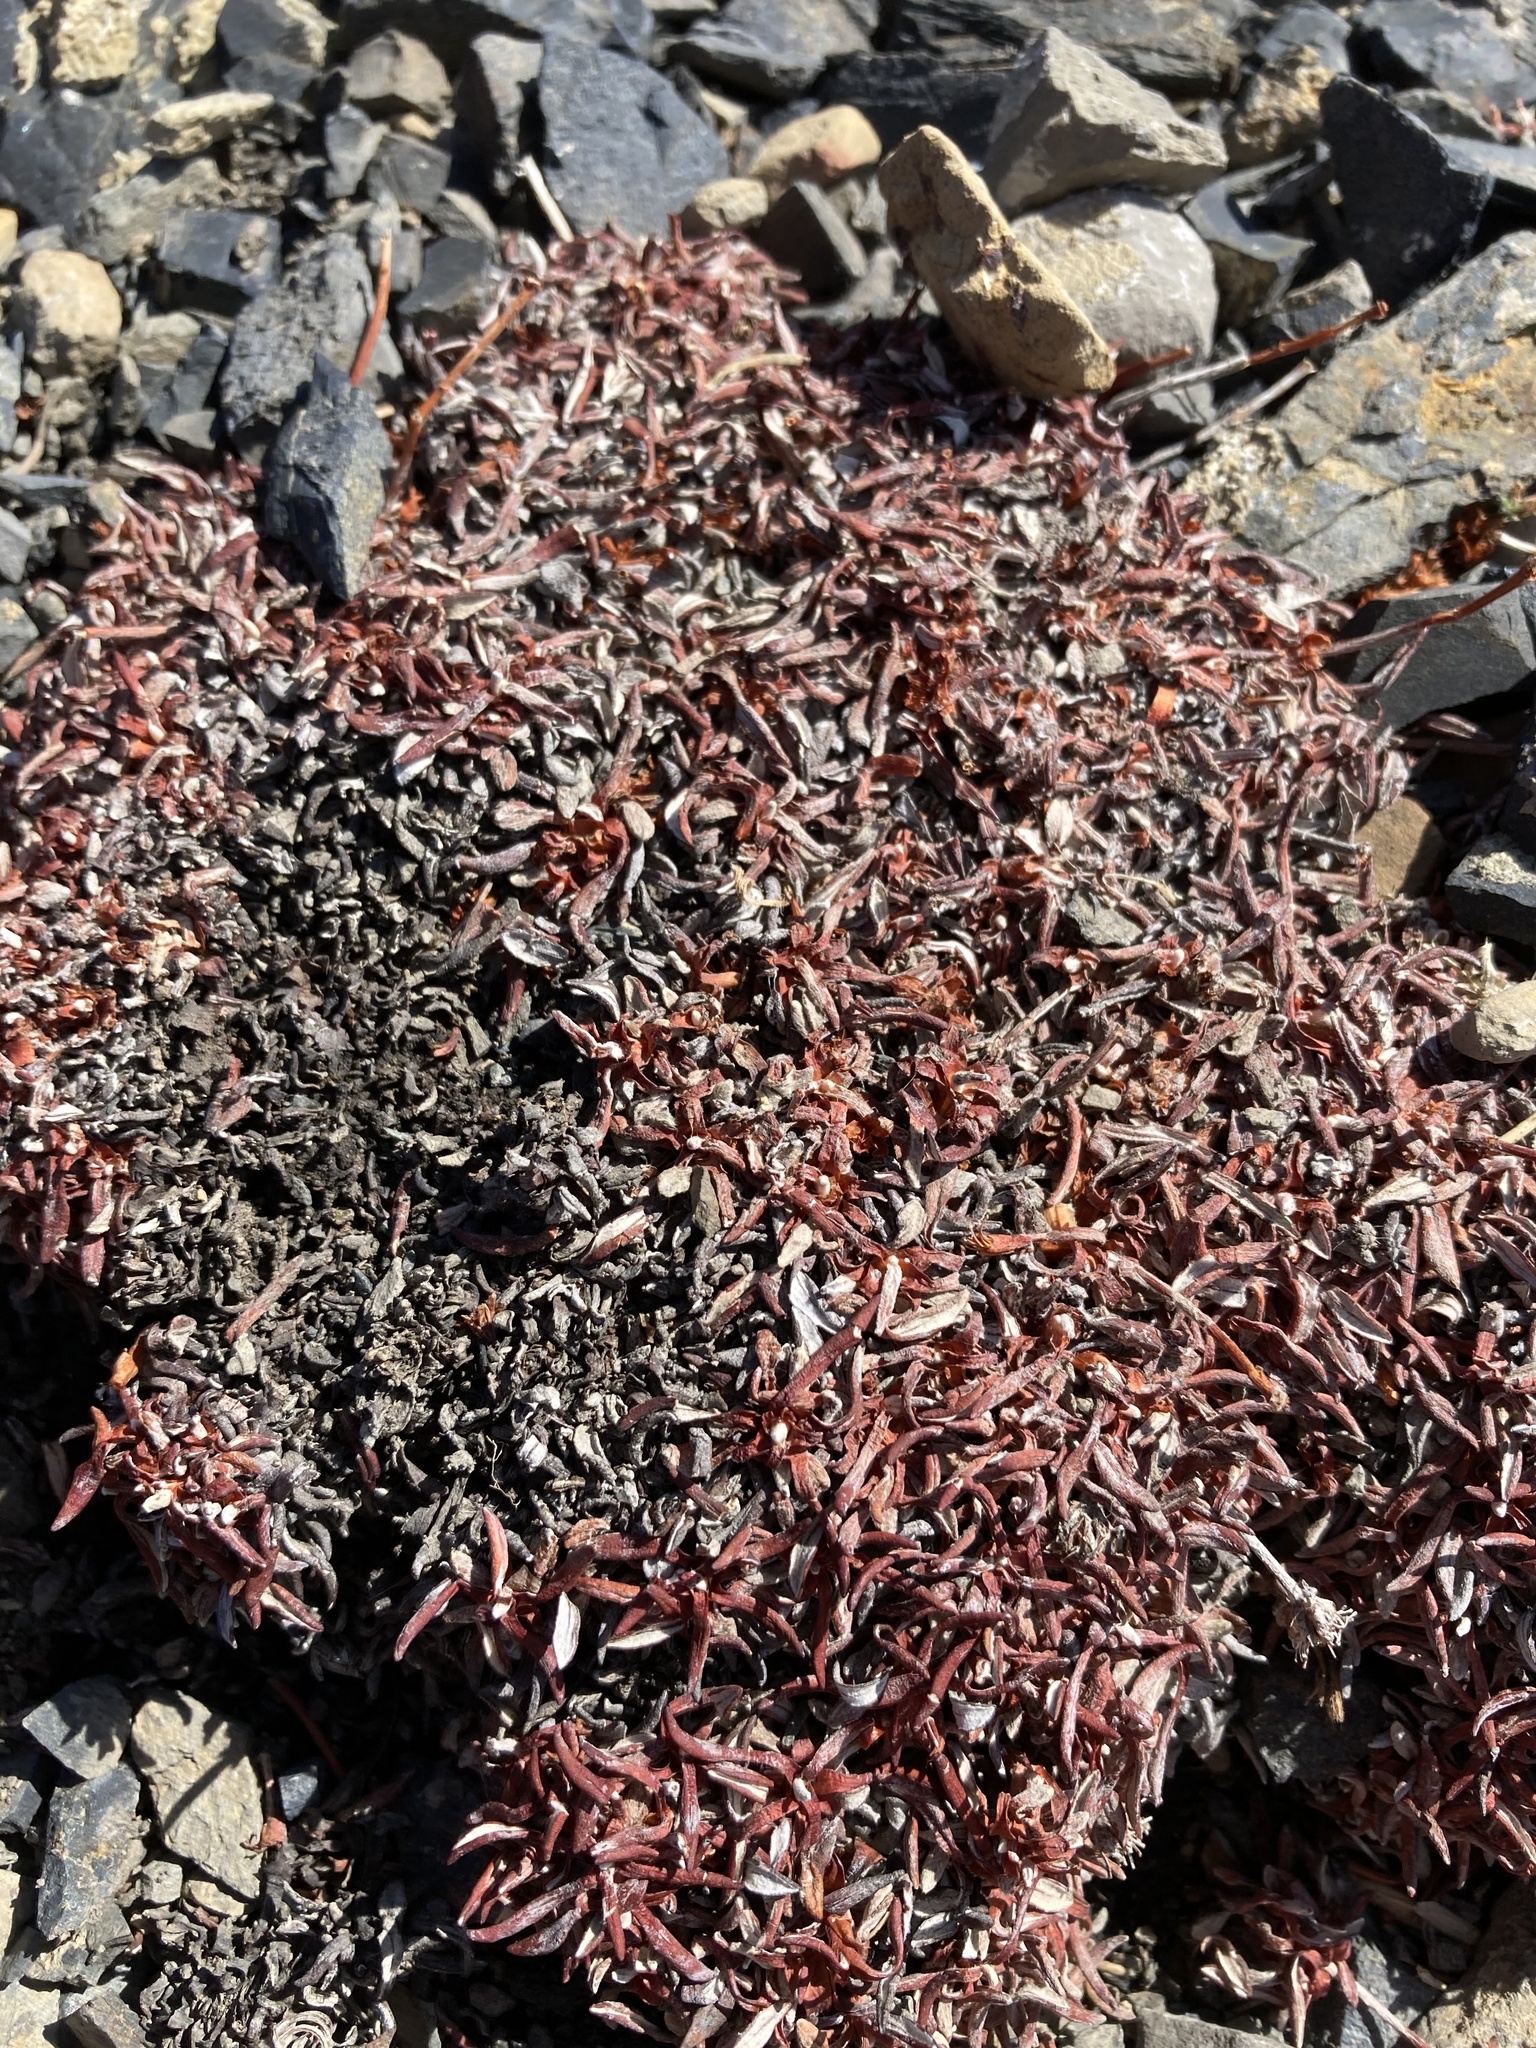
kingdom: Plantae
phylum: Tracheophyta
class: Magnoliopsida
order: Caryophyllales
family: Polygonaceae
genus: Eriogonum
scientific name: Eriogonum androsaceum
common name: Rock-jasmine wild buckwheat
